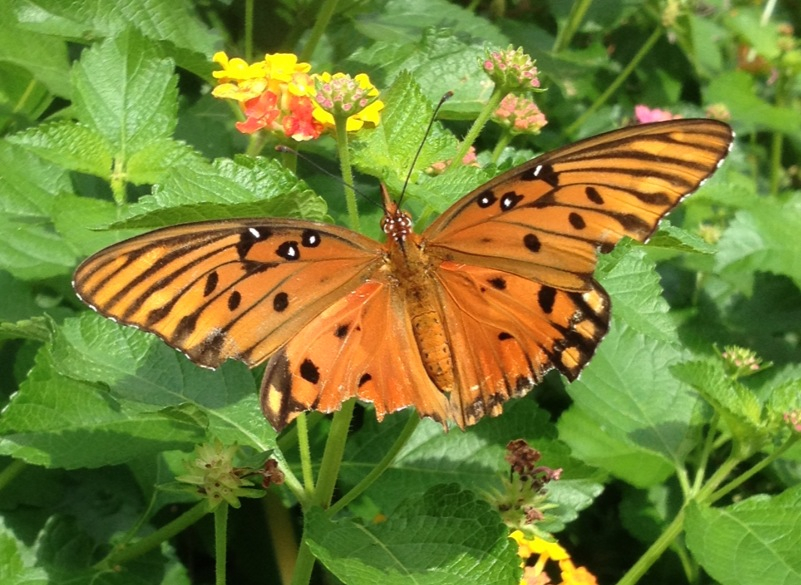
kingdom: Animalia
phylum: Arthropoda
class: Insecta
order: Lepidoptera
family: Nymphalidae
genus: Dione
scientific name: Dione vanillae
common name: Gulf fritillary
